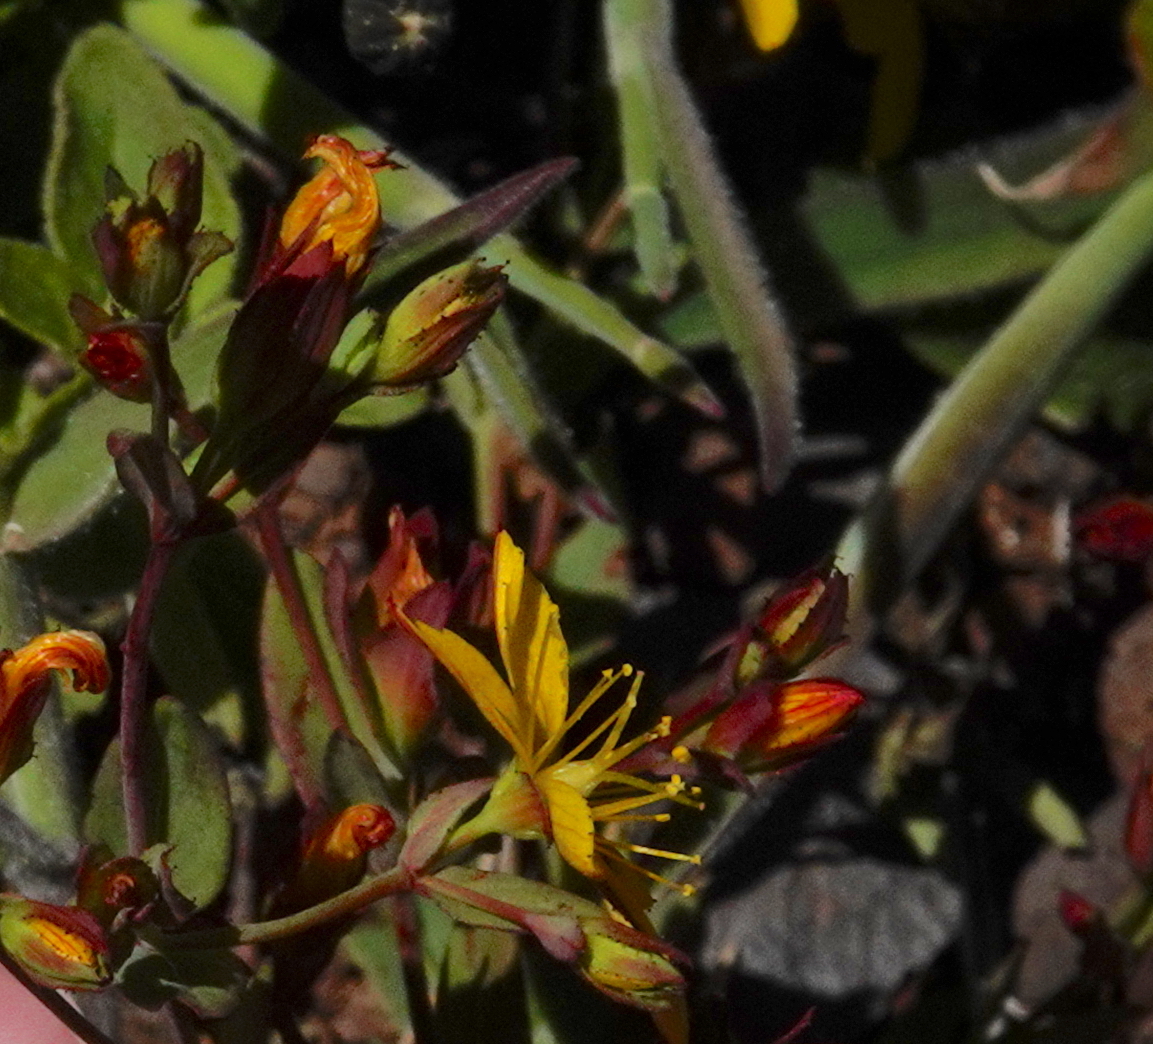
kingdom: Plantae
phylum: Tracheophyta
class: Magnoliopsida
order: Malpighiales
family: Hypericaceae
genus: Hypericum
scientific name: Hypericum humifusum
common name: Trailing st. john's-wort
